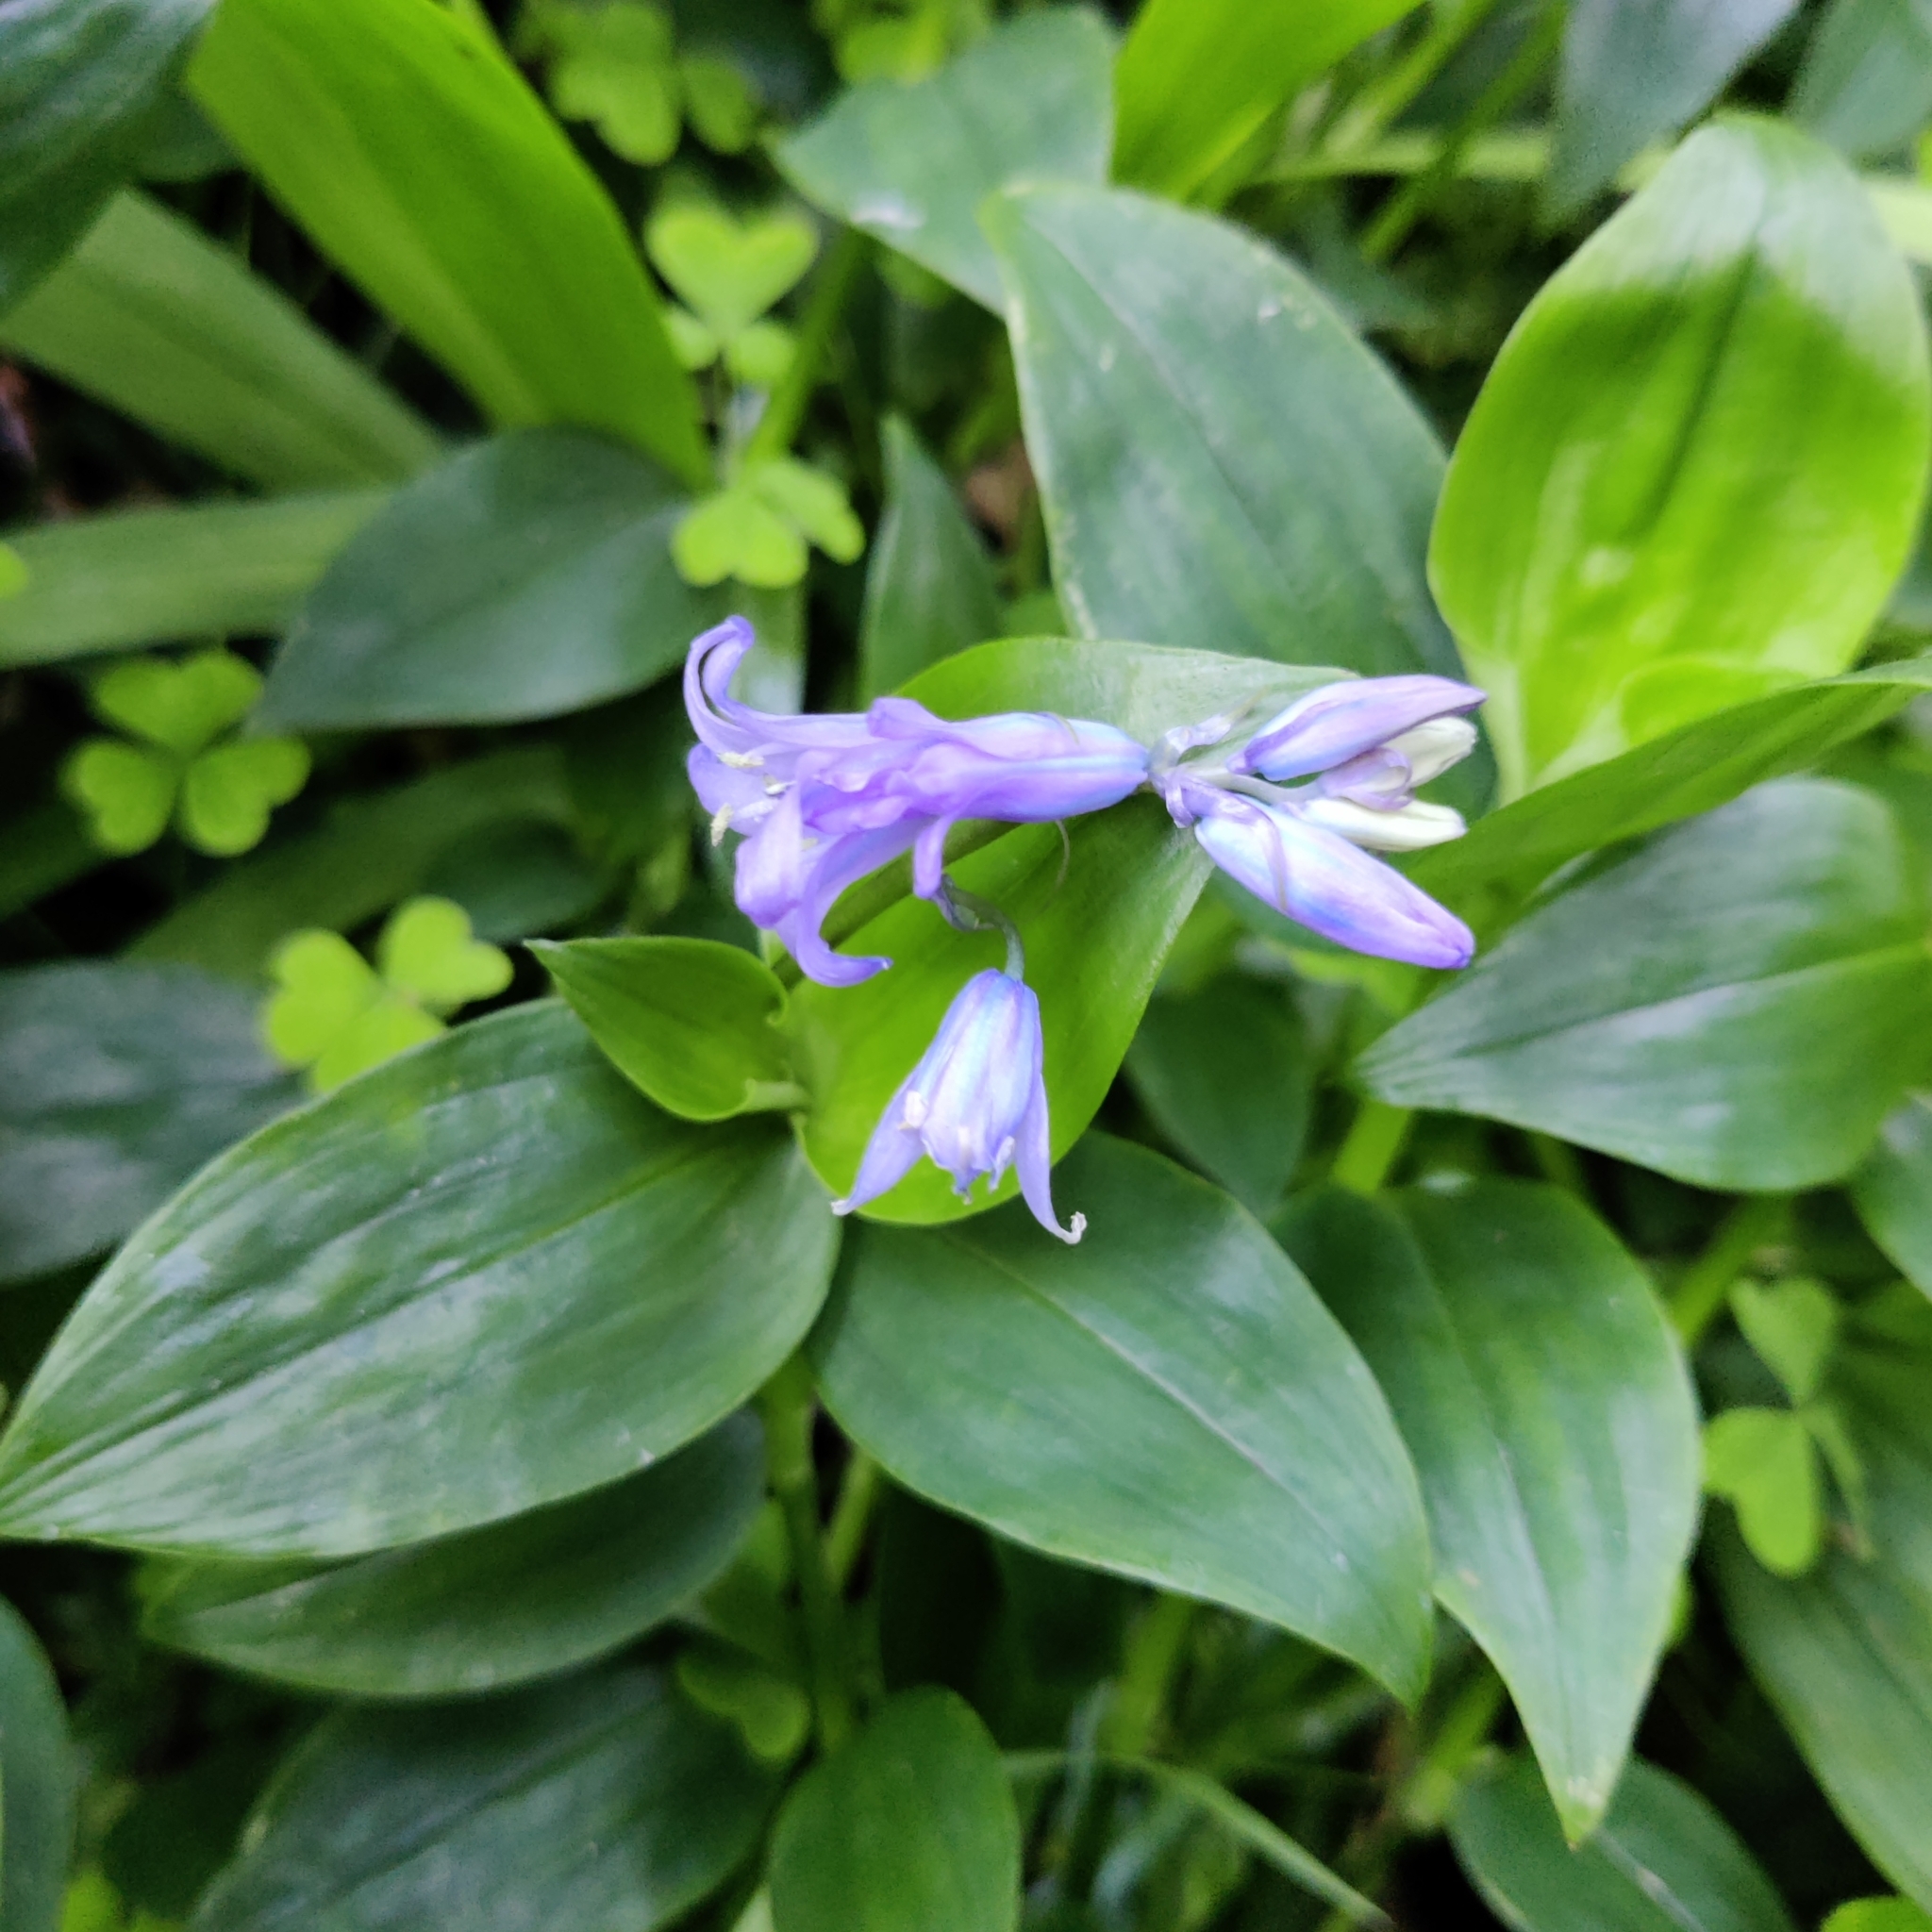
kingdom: Plantae
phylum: Tracheophyta
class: Liliopsida
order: Asparagales
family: Asparagaceae
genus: Hyacinthoides
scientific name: Hyacinthoides massartiana
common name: Hyacinthoides
